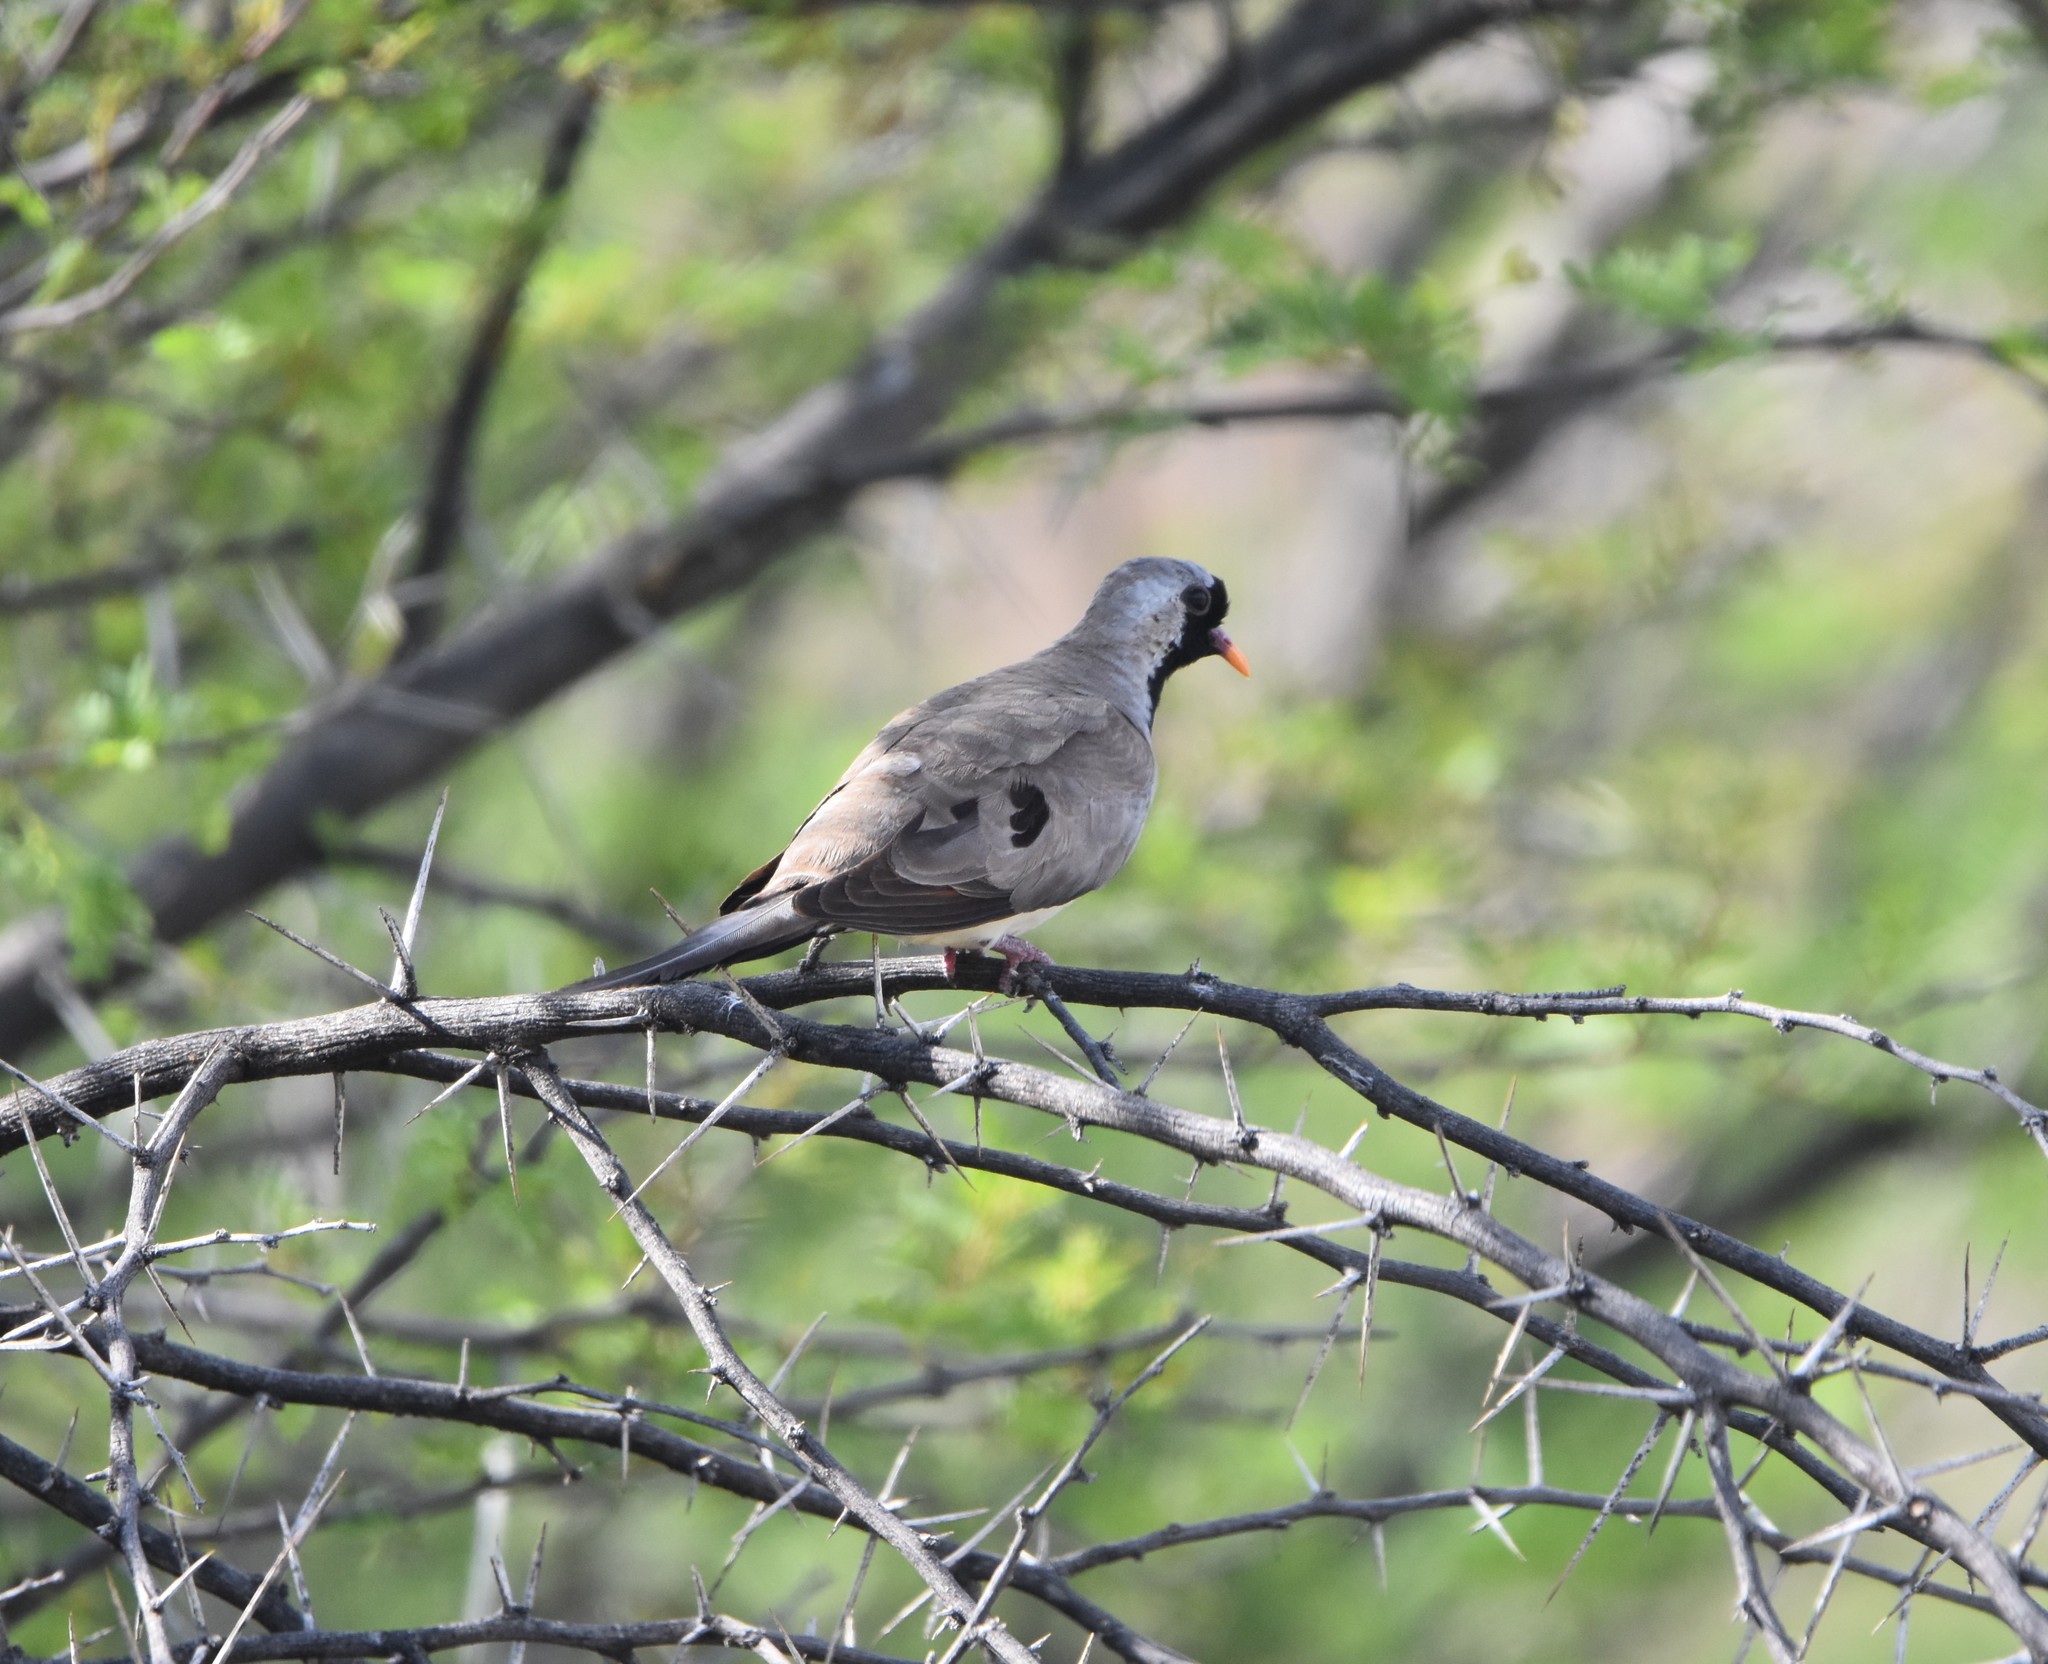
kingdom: Animalia
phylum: Chordata
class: Aves
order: Columbiformes
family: Columbidae
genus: Oena
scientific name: Oena capensis
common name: Namaqua dove
